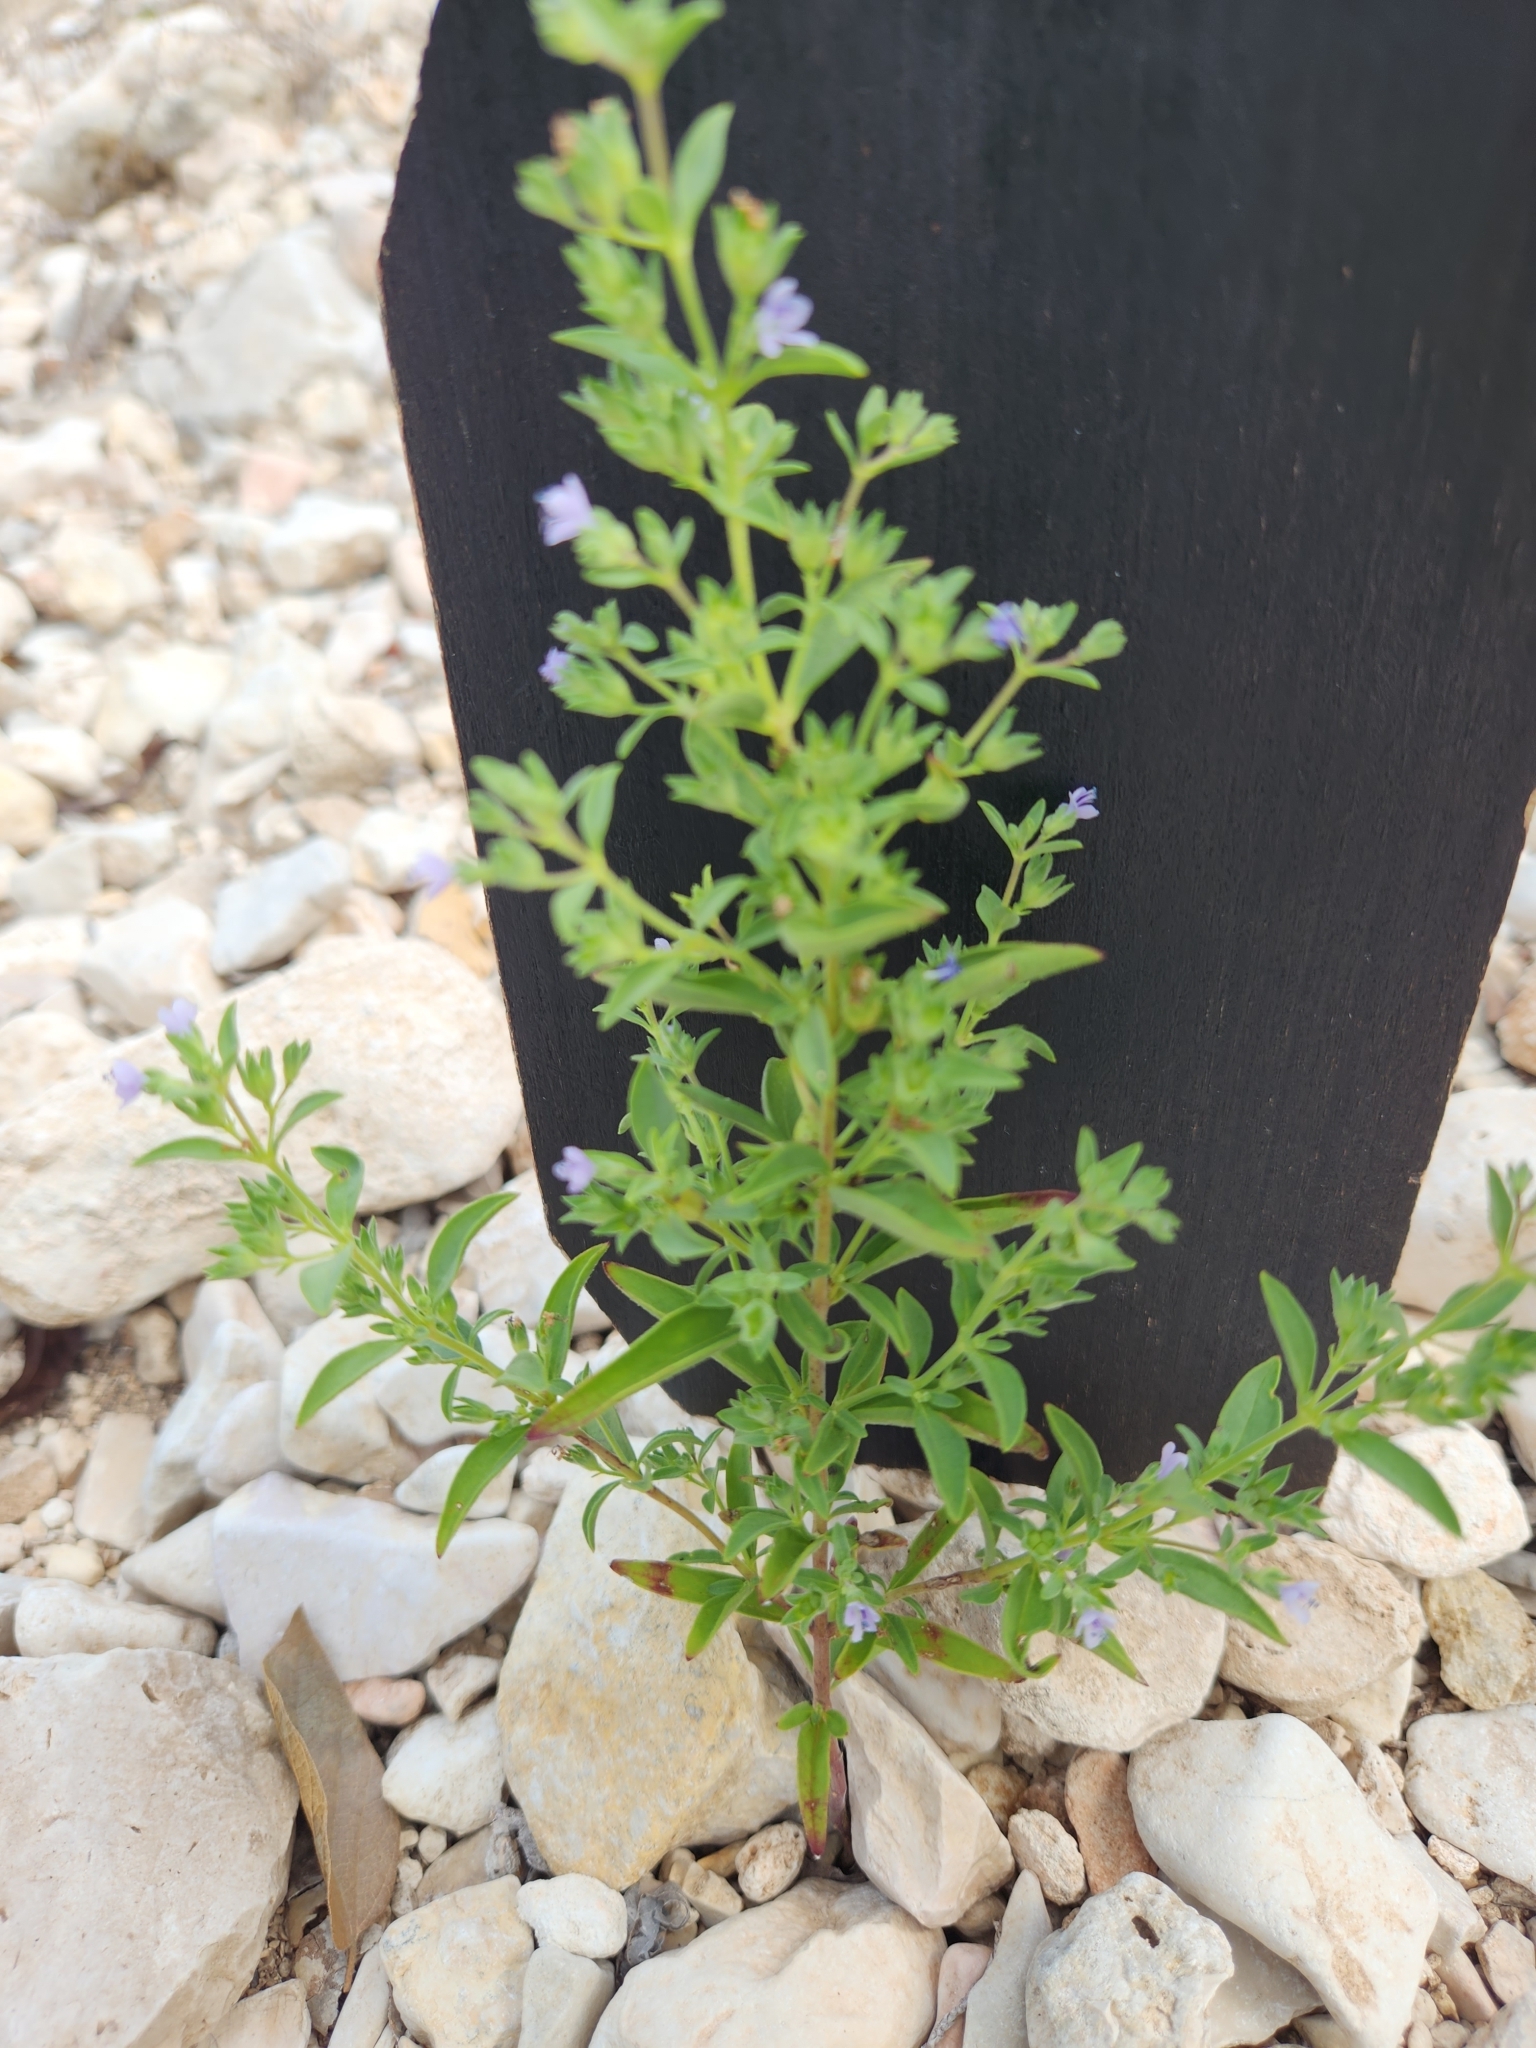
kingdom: Plantae
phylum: Tracheophyta
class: Magnoliopsida
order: Lamiales
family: Lamiaceae
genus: Trichostema
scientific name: Trichostema brachiatum
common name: False pennyroyal
